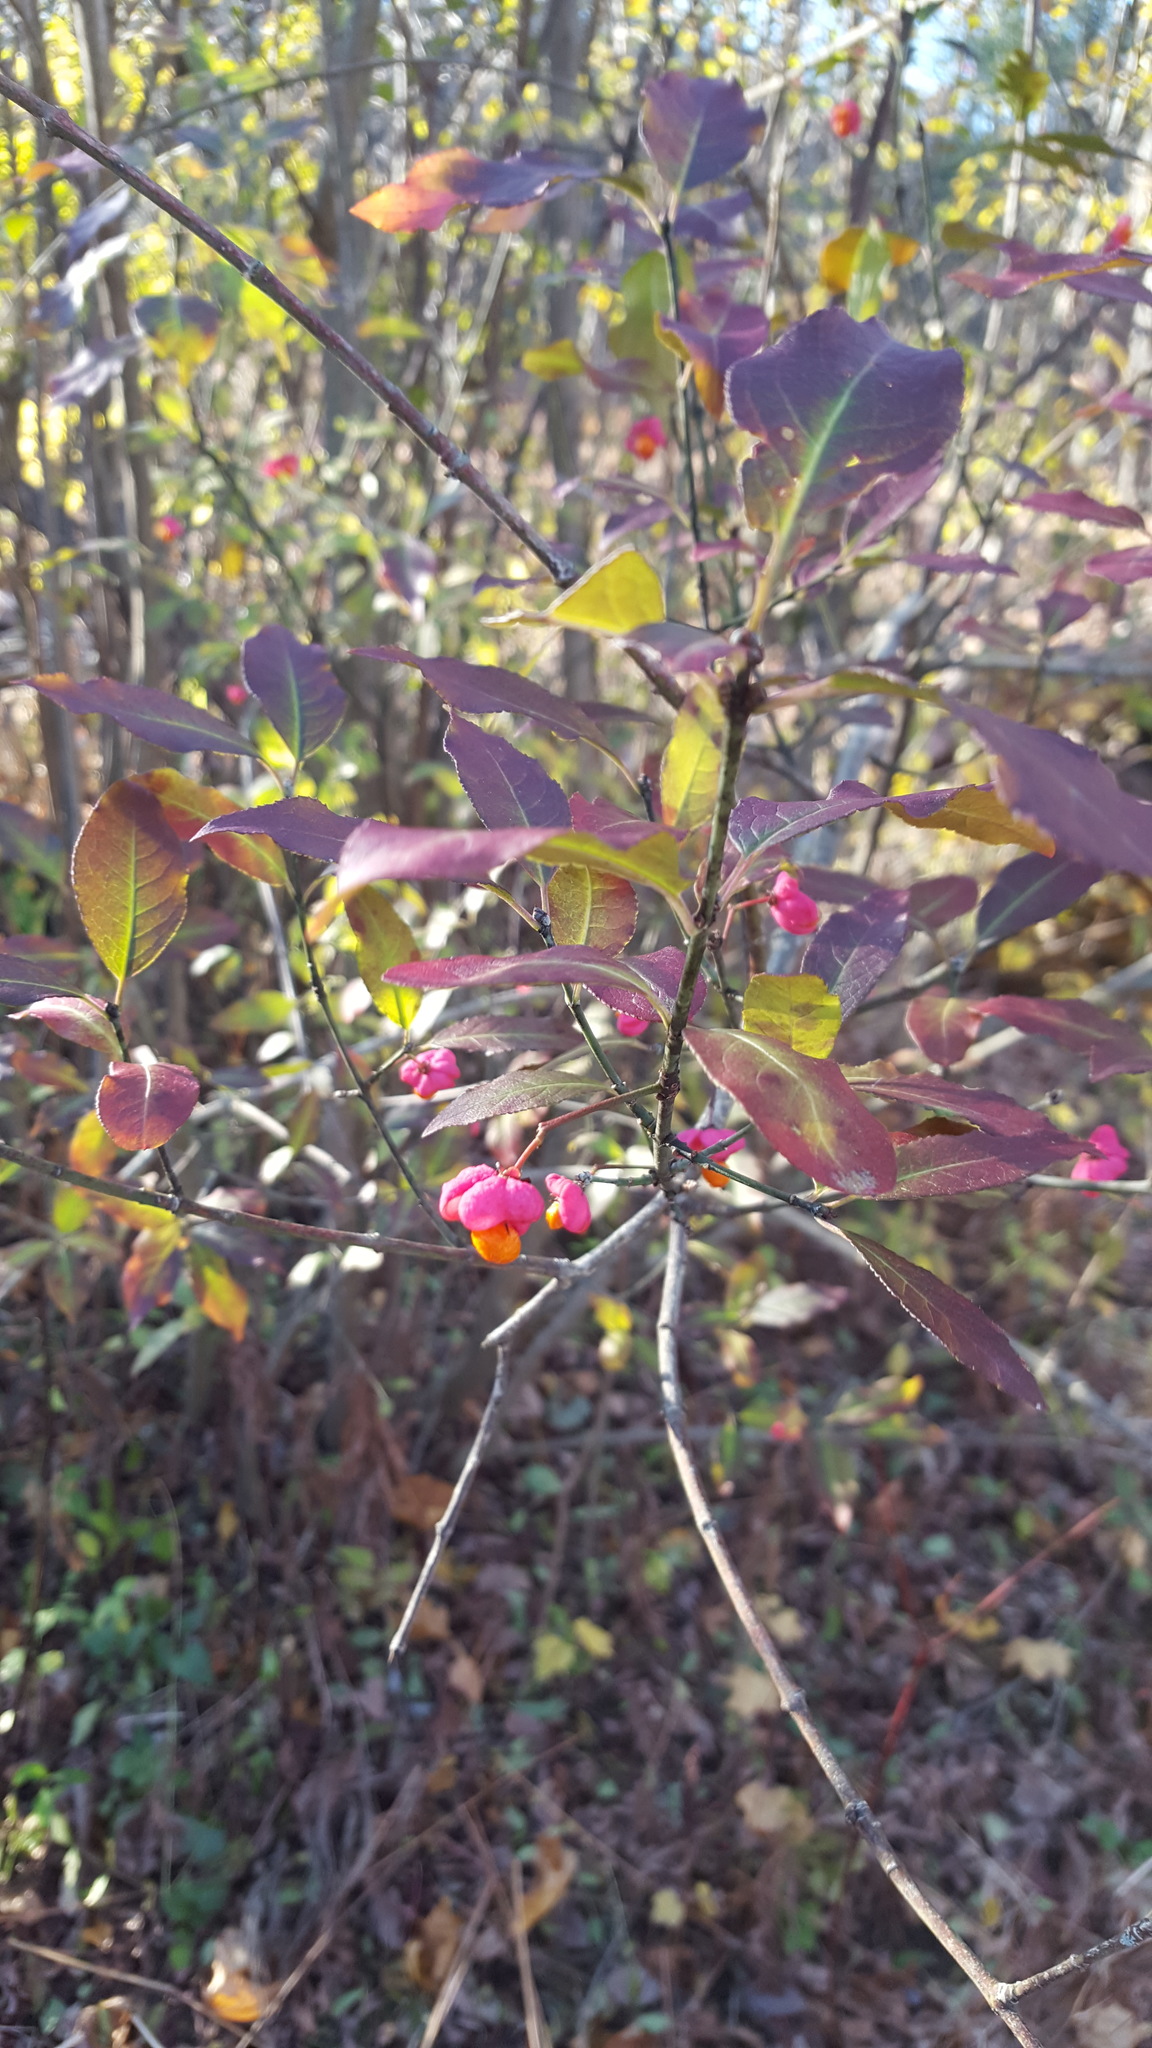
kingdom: Plantae
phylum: Tracheophyta
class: Magnoliopsida
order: Celastrales
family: Celastraceae
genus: Euonymus
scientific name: Euonymus europaeus
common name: Spindle
